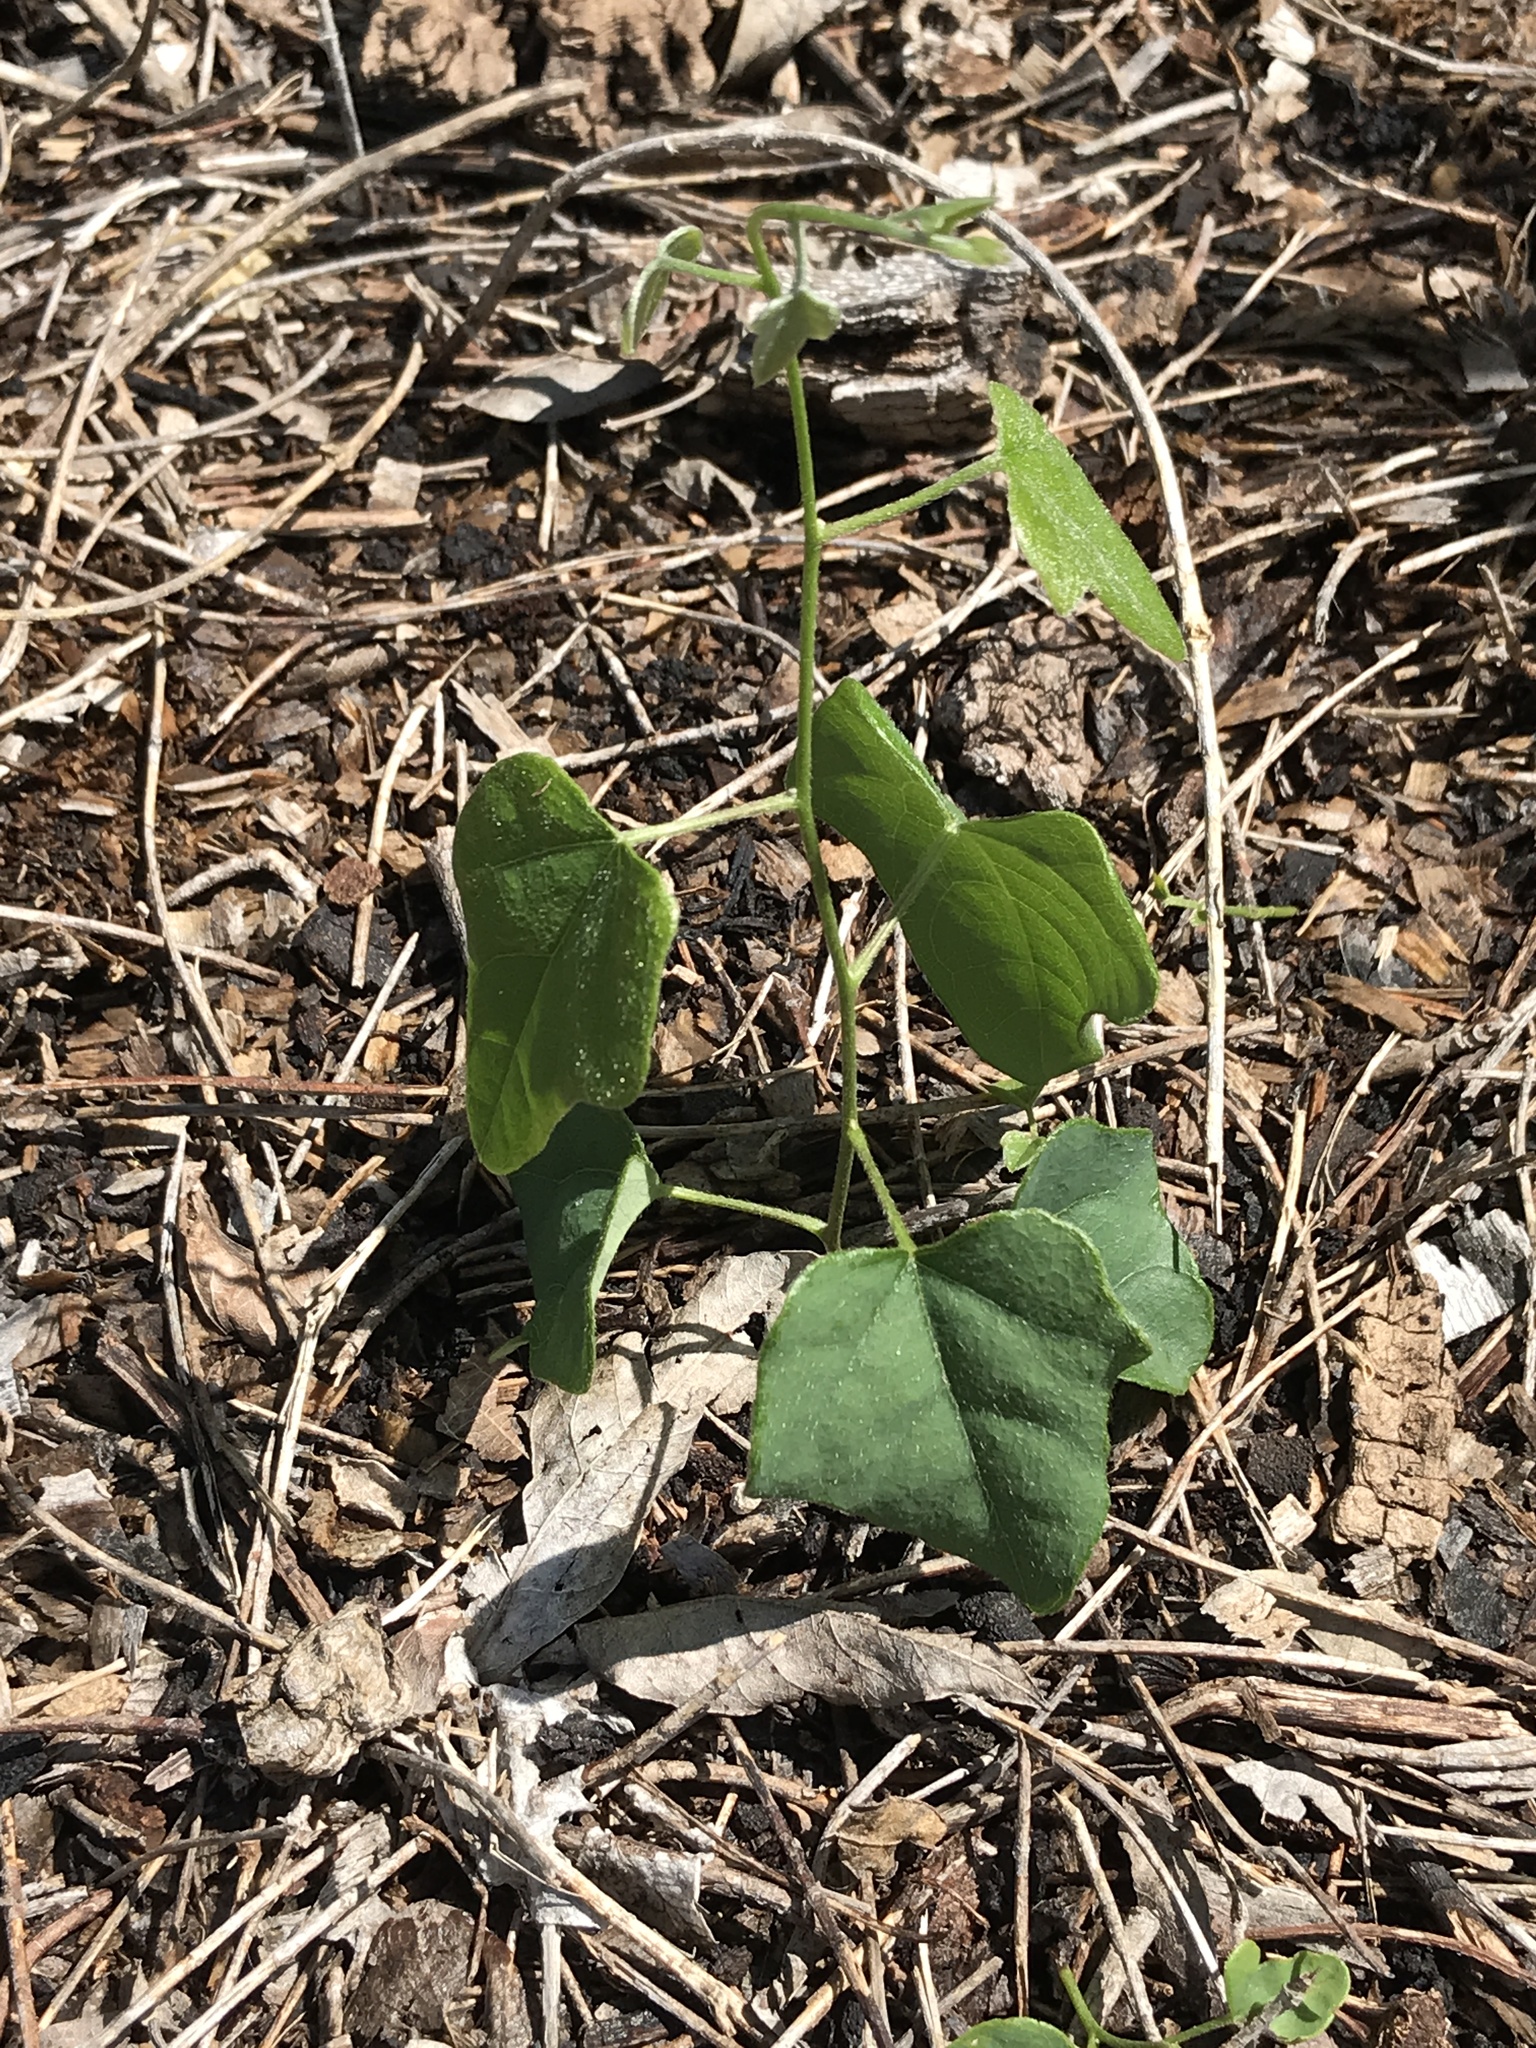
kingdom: Plantae
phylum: Tracheophyta
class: Magnoliopsida
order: Ranunculales
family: Menispermaceae
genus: Cocculus
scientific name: Cocculus carolinus
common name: Carolina moonseed
